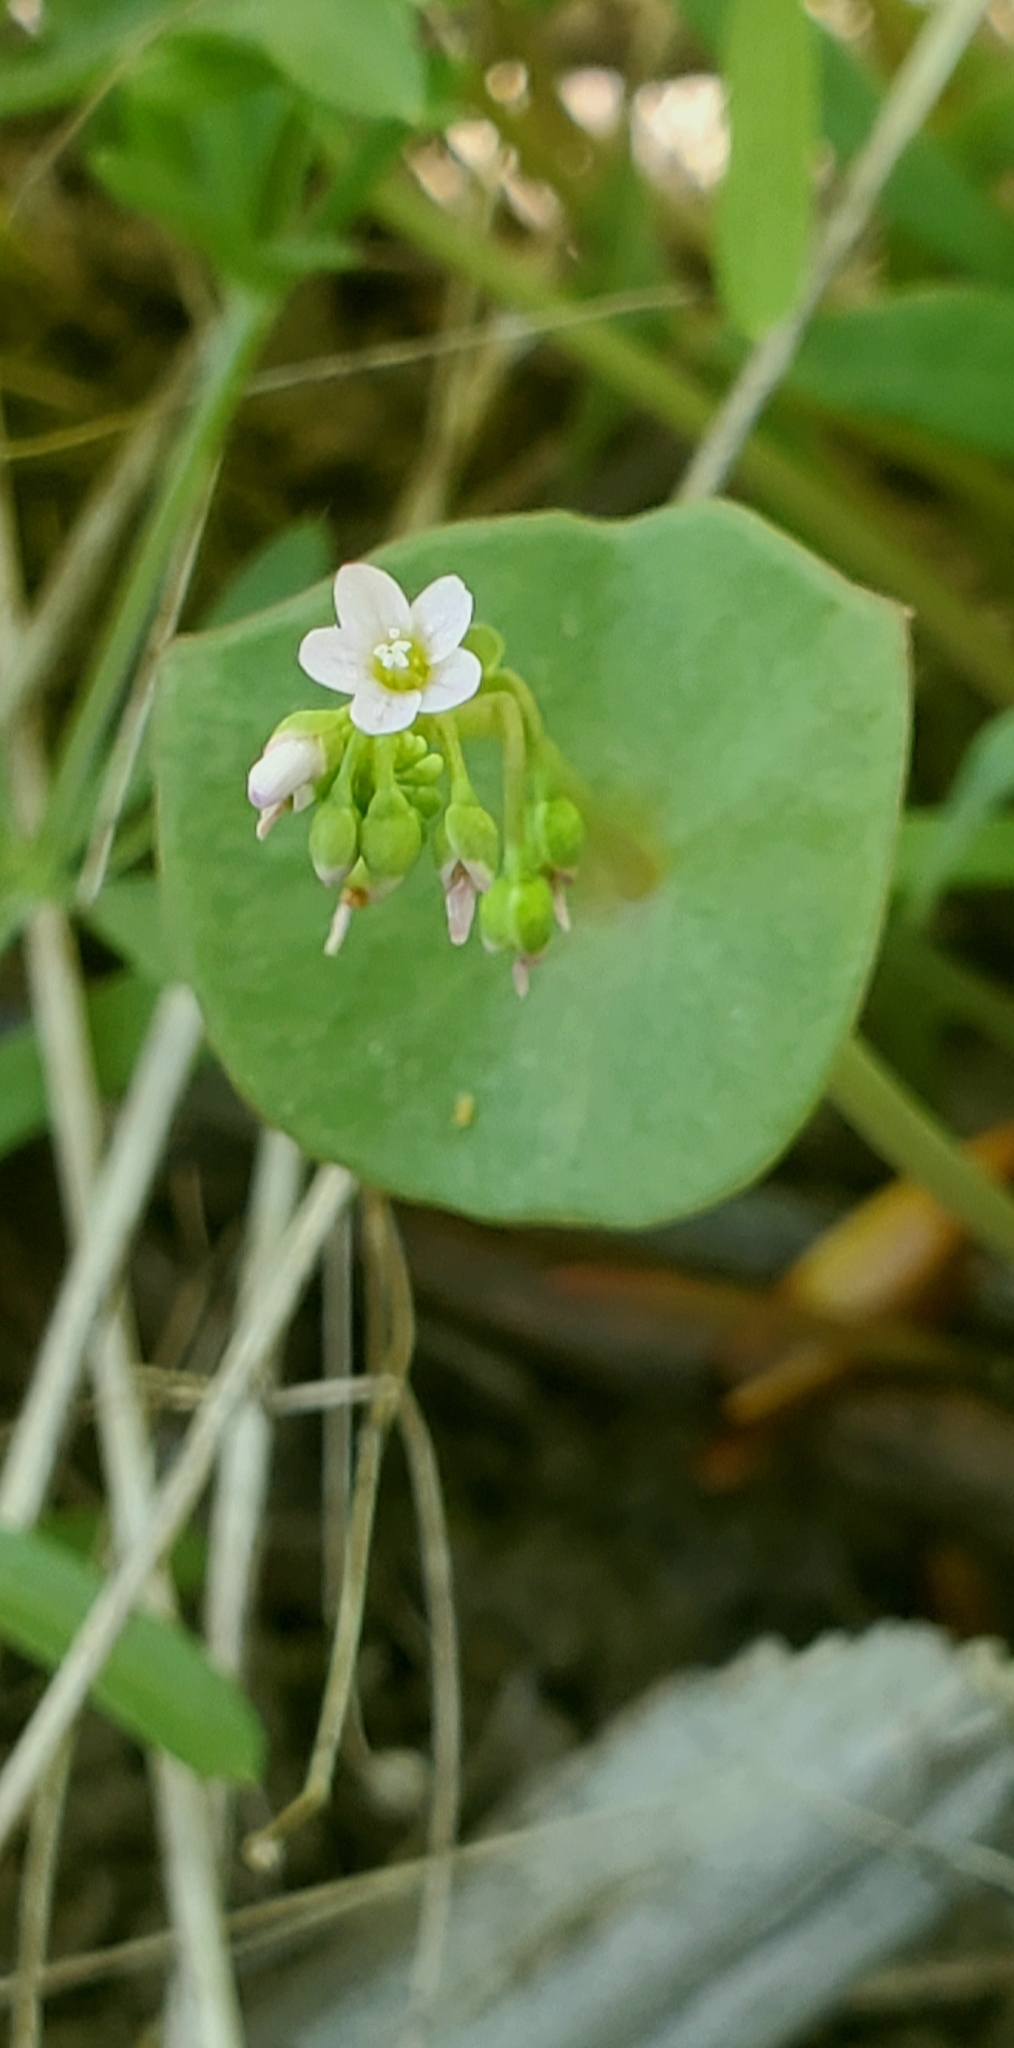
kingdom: Plantae
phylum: Tracheophyta
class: Magnoliopsida
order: Caryophyllales
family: Montiaceae
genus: Claytonia
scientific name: Claytonia parviflora
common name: Indian-lettuce
